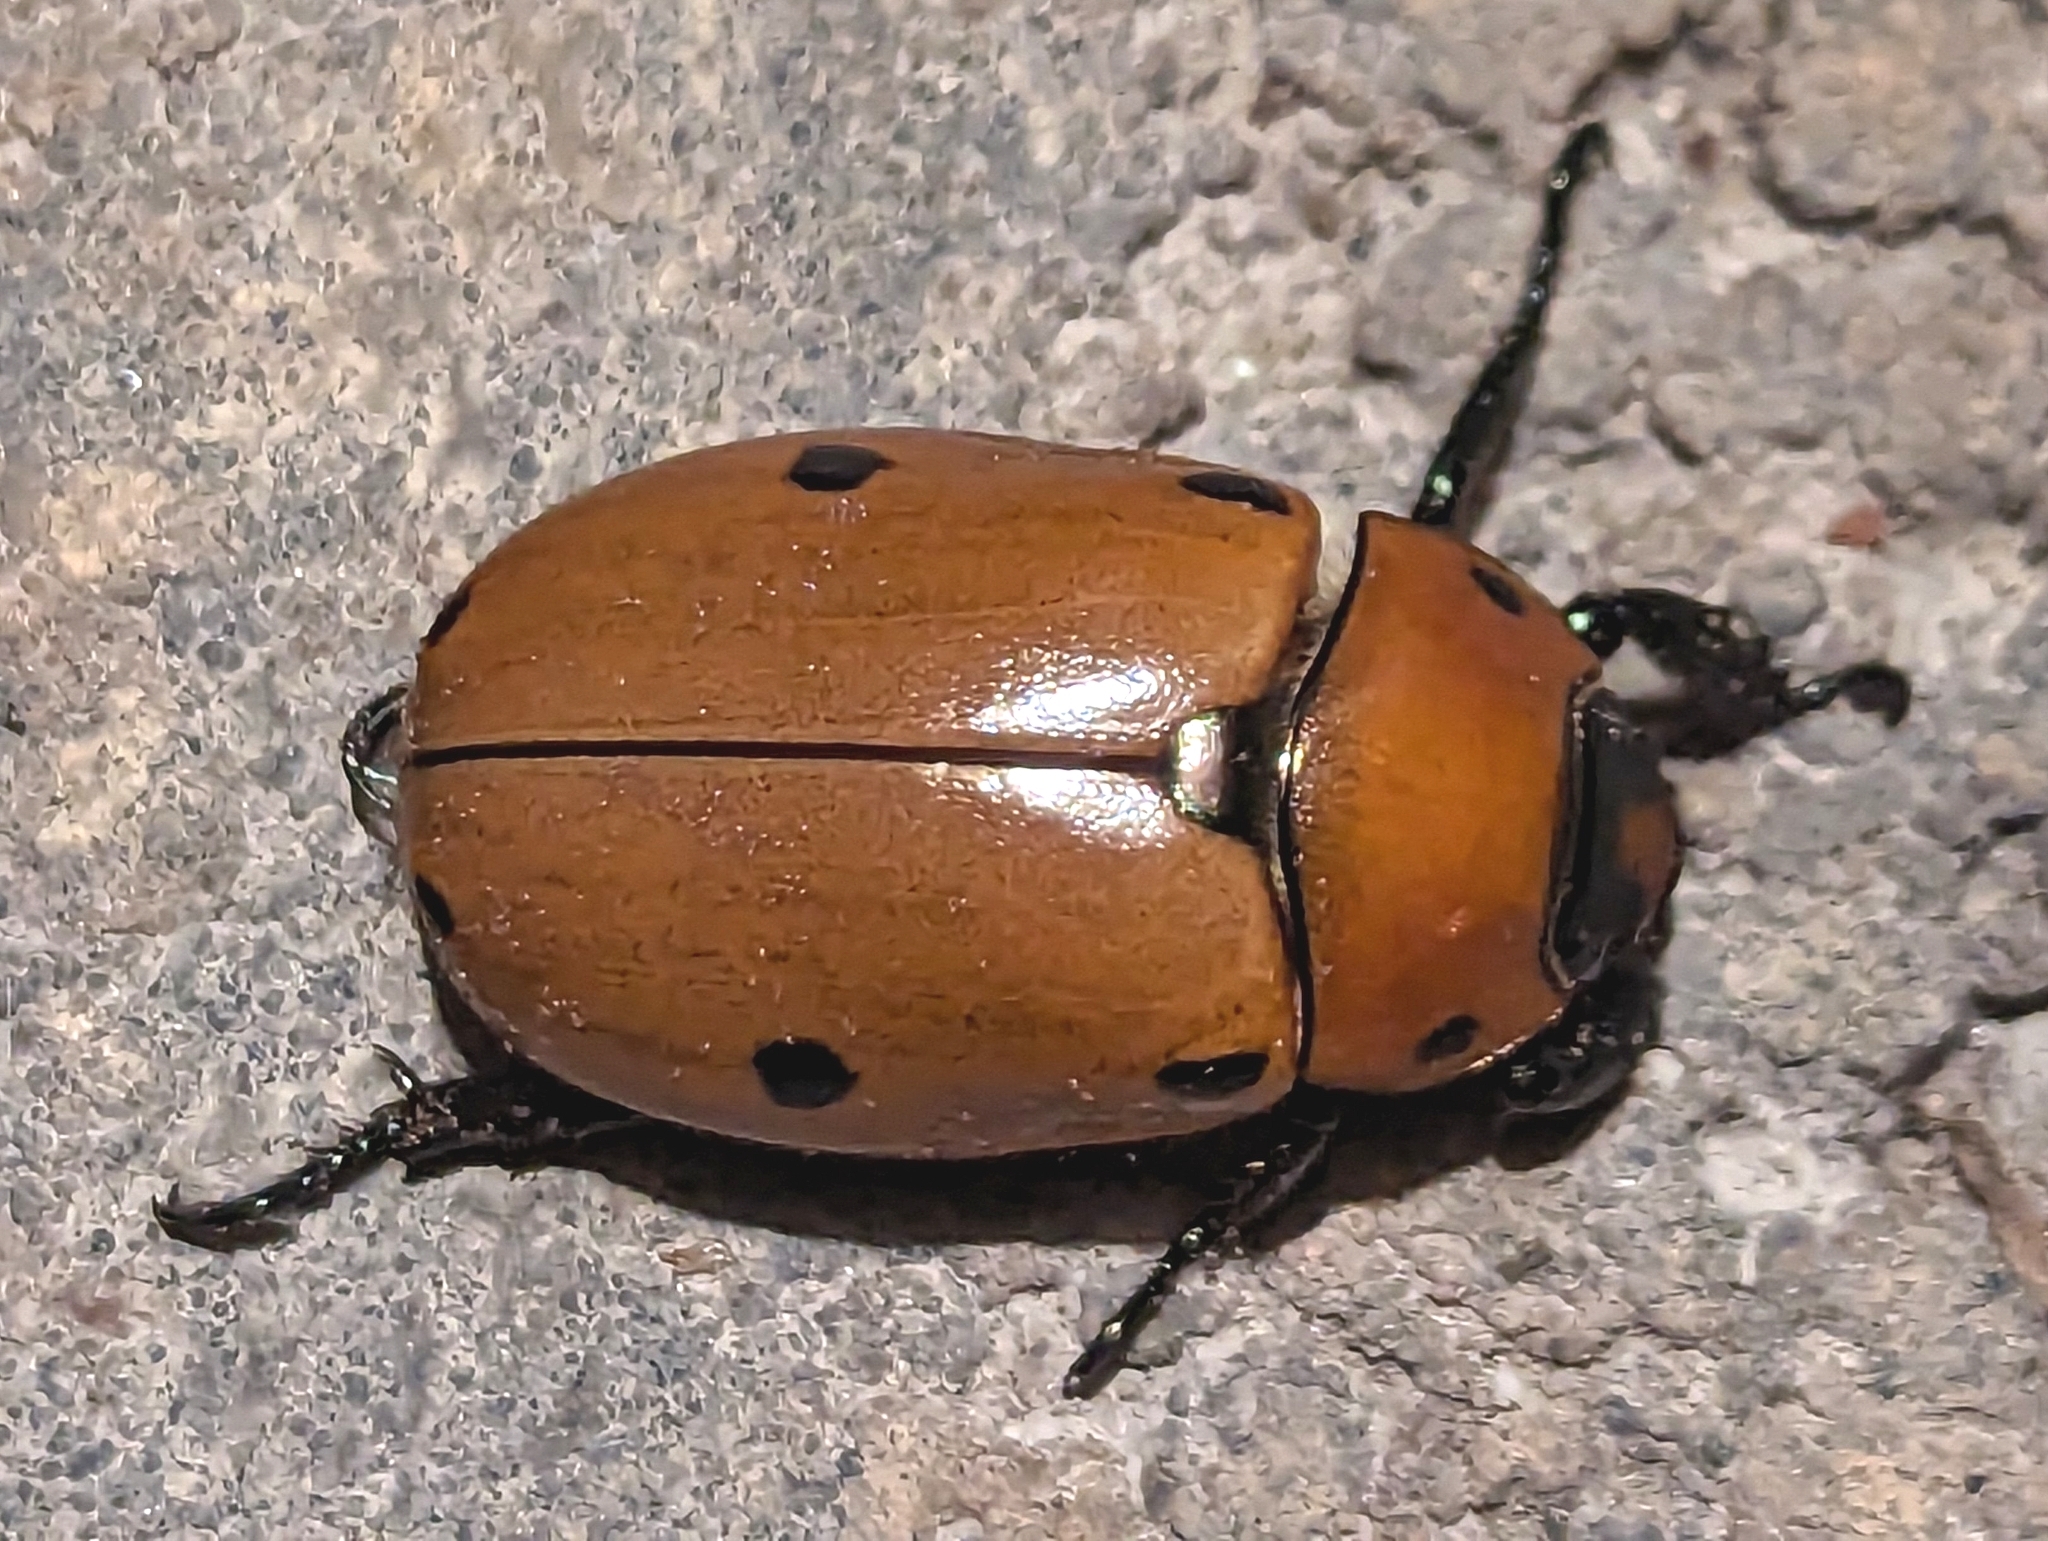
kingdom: Animalia
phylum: Arthropoda
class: Insecta
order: Coleoptera
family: Scarabaeidae
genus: Pelidnota
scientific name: Pelidnota punctata
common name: Grapevine beetle
